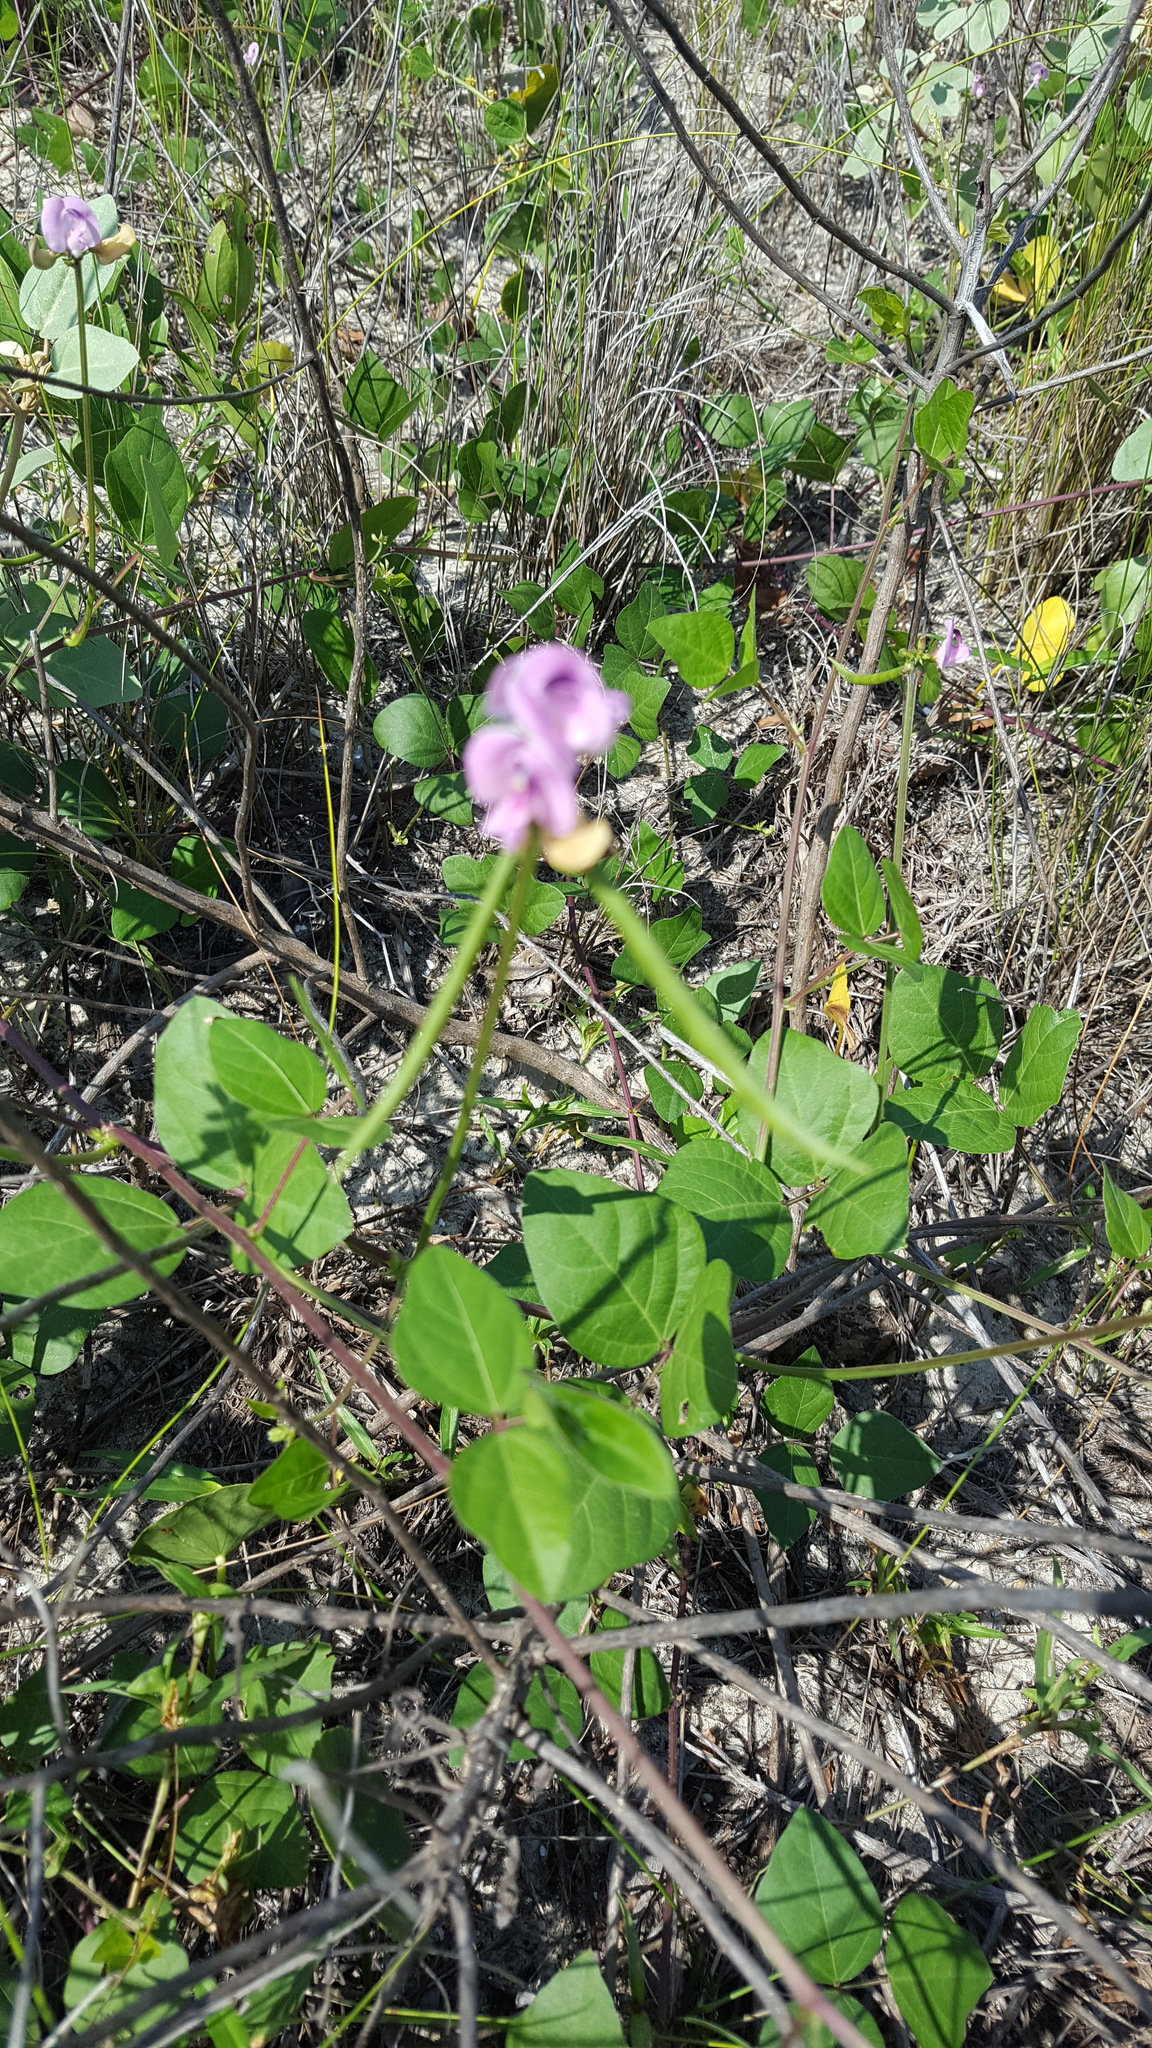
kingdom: Plantae
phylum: Tracheophyta
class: Magnoliopsida
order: Fabales
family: Fabaceae
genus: Strophostyles
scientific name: Strophostyles helvola
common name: Trailing wild bean
